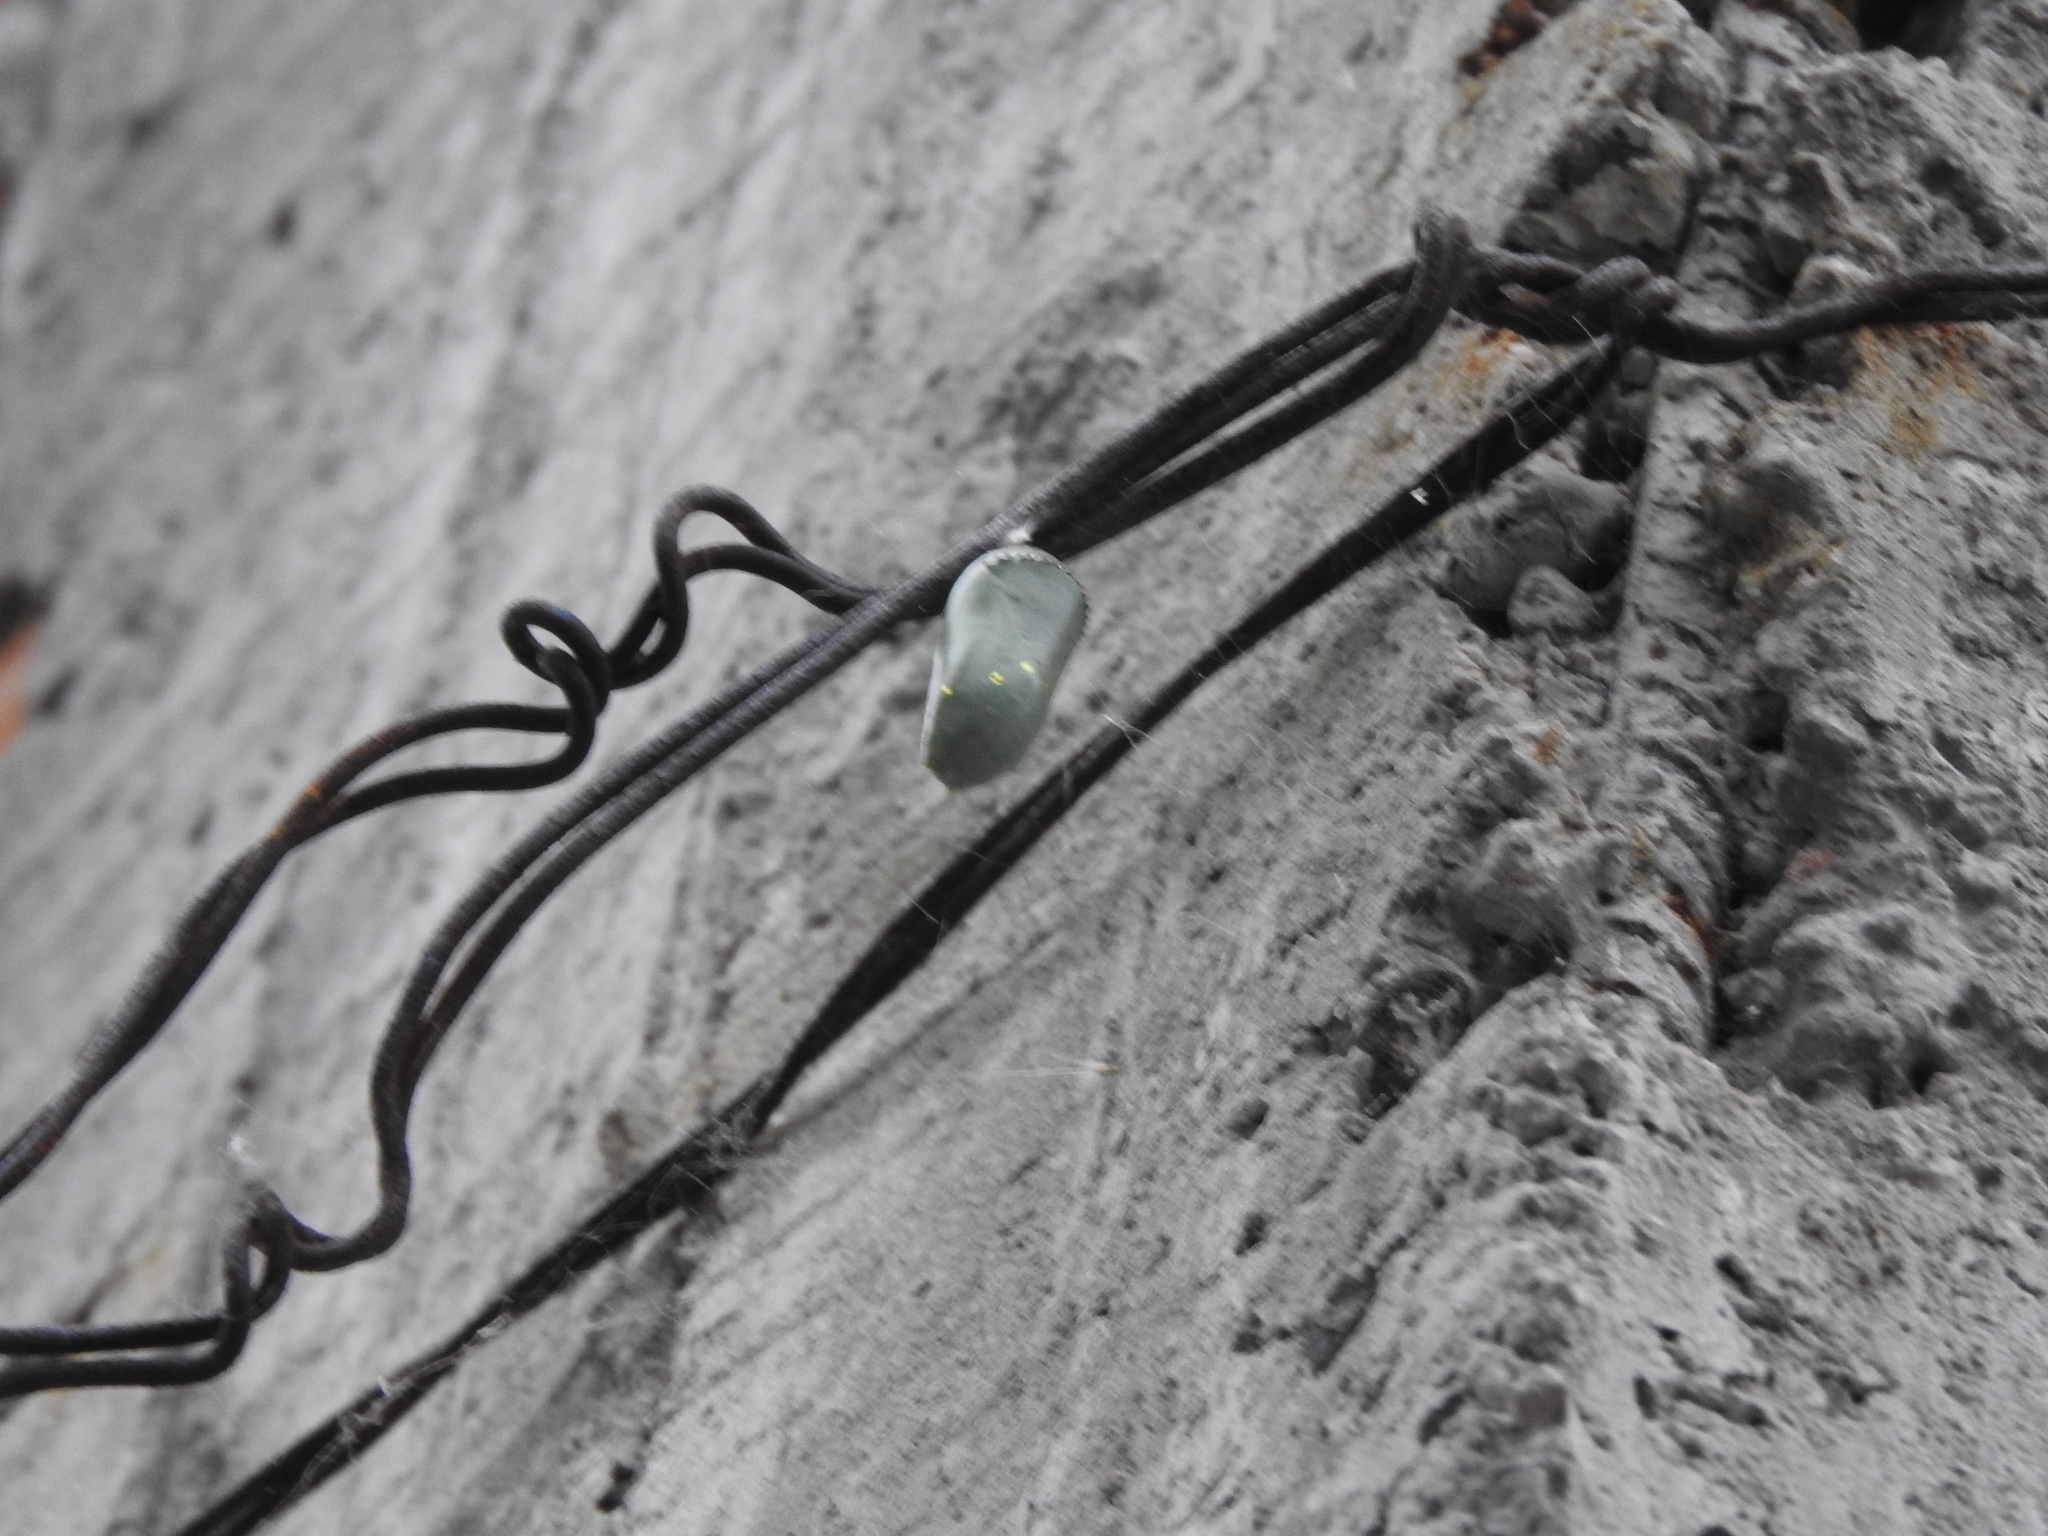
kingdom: Animalia
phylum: Arthropoda
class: Insecta
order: Lepidoptera
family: Nymphalidae
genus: Danaus
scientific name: Danaus plexippus
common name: Monarch
